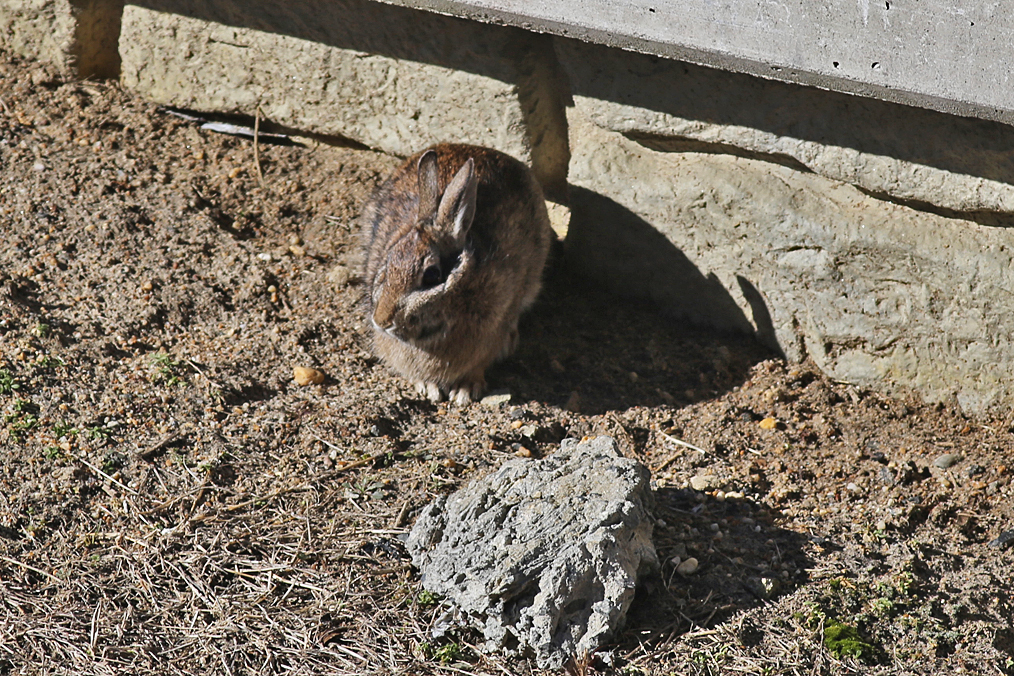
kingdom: Animalia
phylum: Chordata
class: Mammalia
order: Lagomorpha
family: Leporidae
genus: Sylvilagus
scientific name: Sylvilagus floridanus
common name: Eastern cottontail
